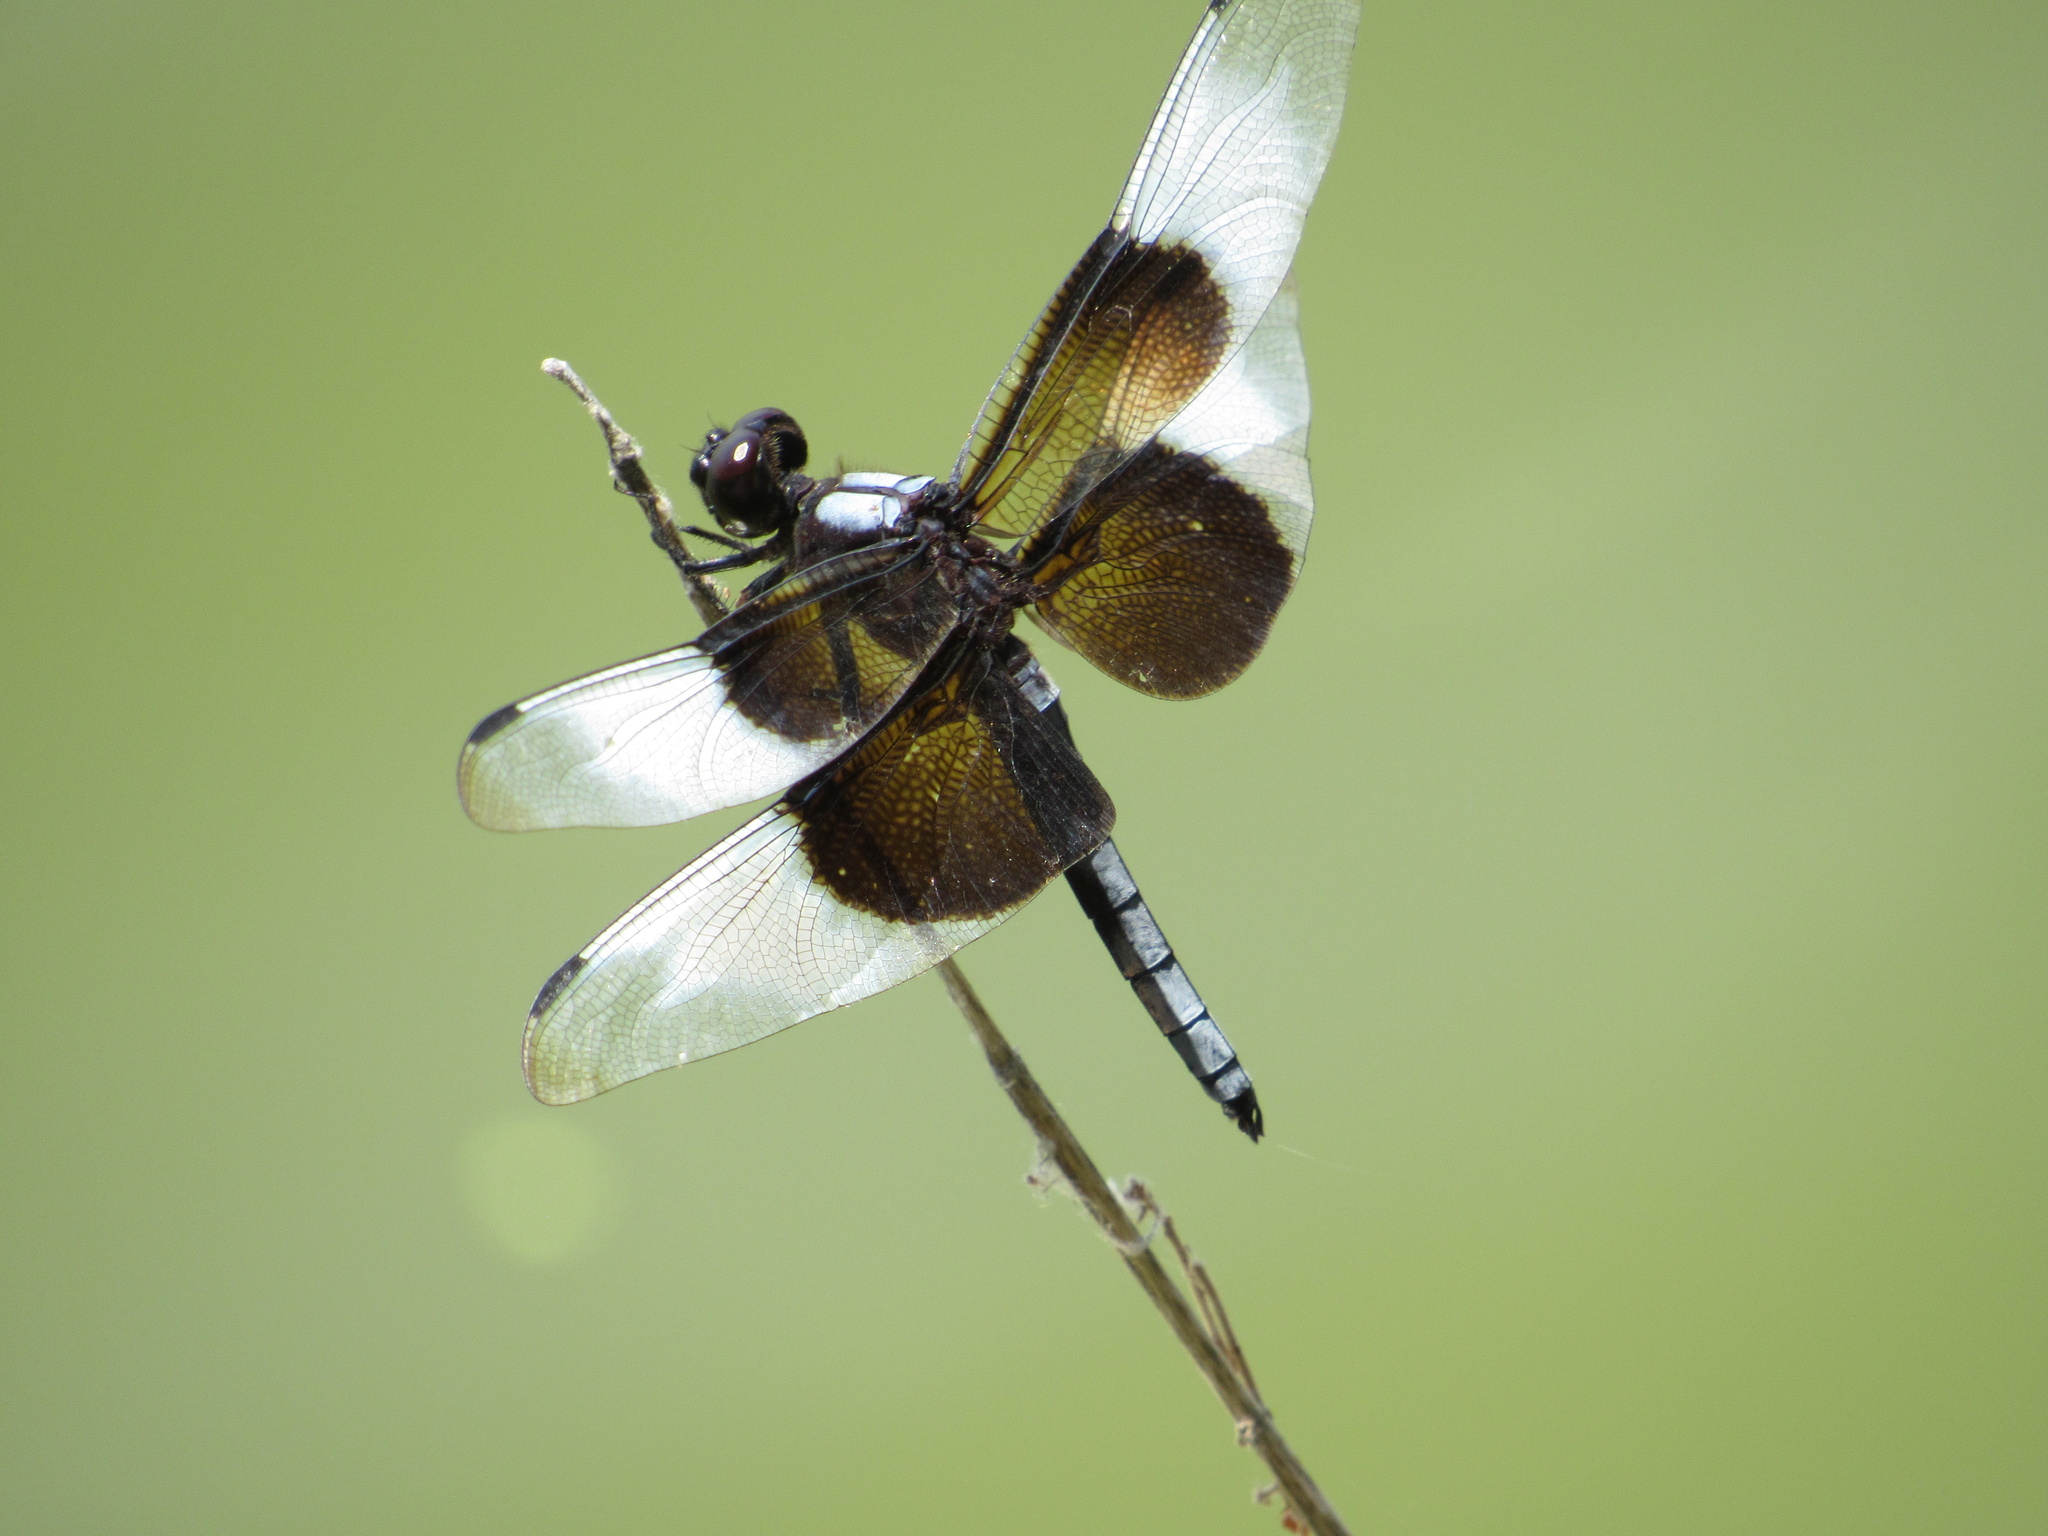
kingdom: Animalia
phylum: Arthropoda
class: Insecta
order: Odonata
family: Libellulidae
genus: Libellula
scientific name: Libellula luctuosa
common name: Widow skimmer
